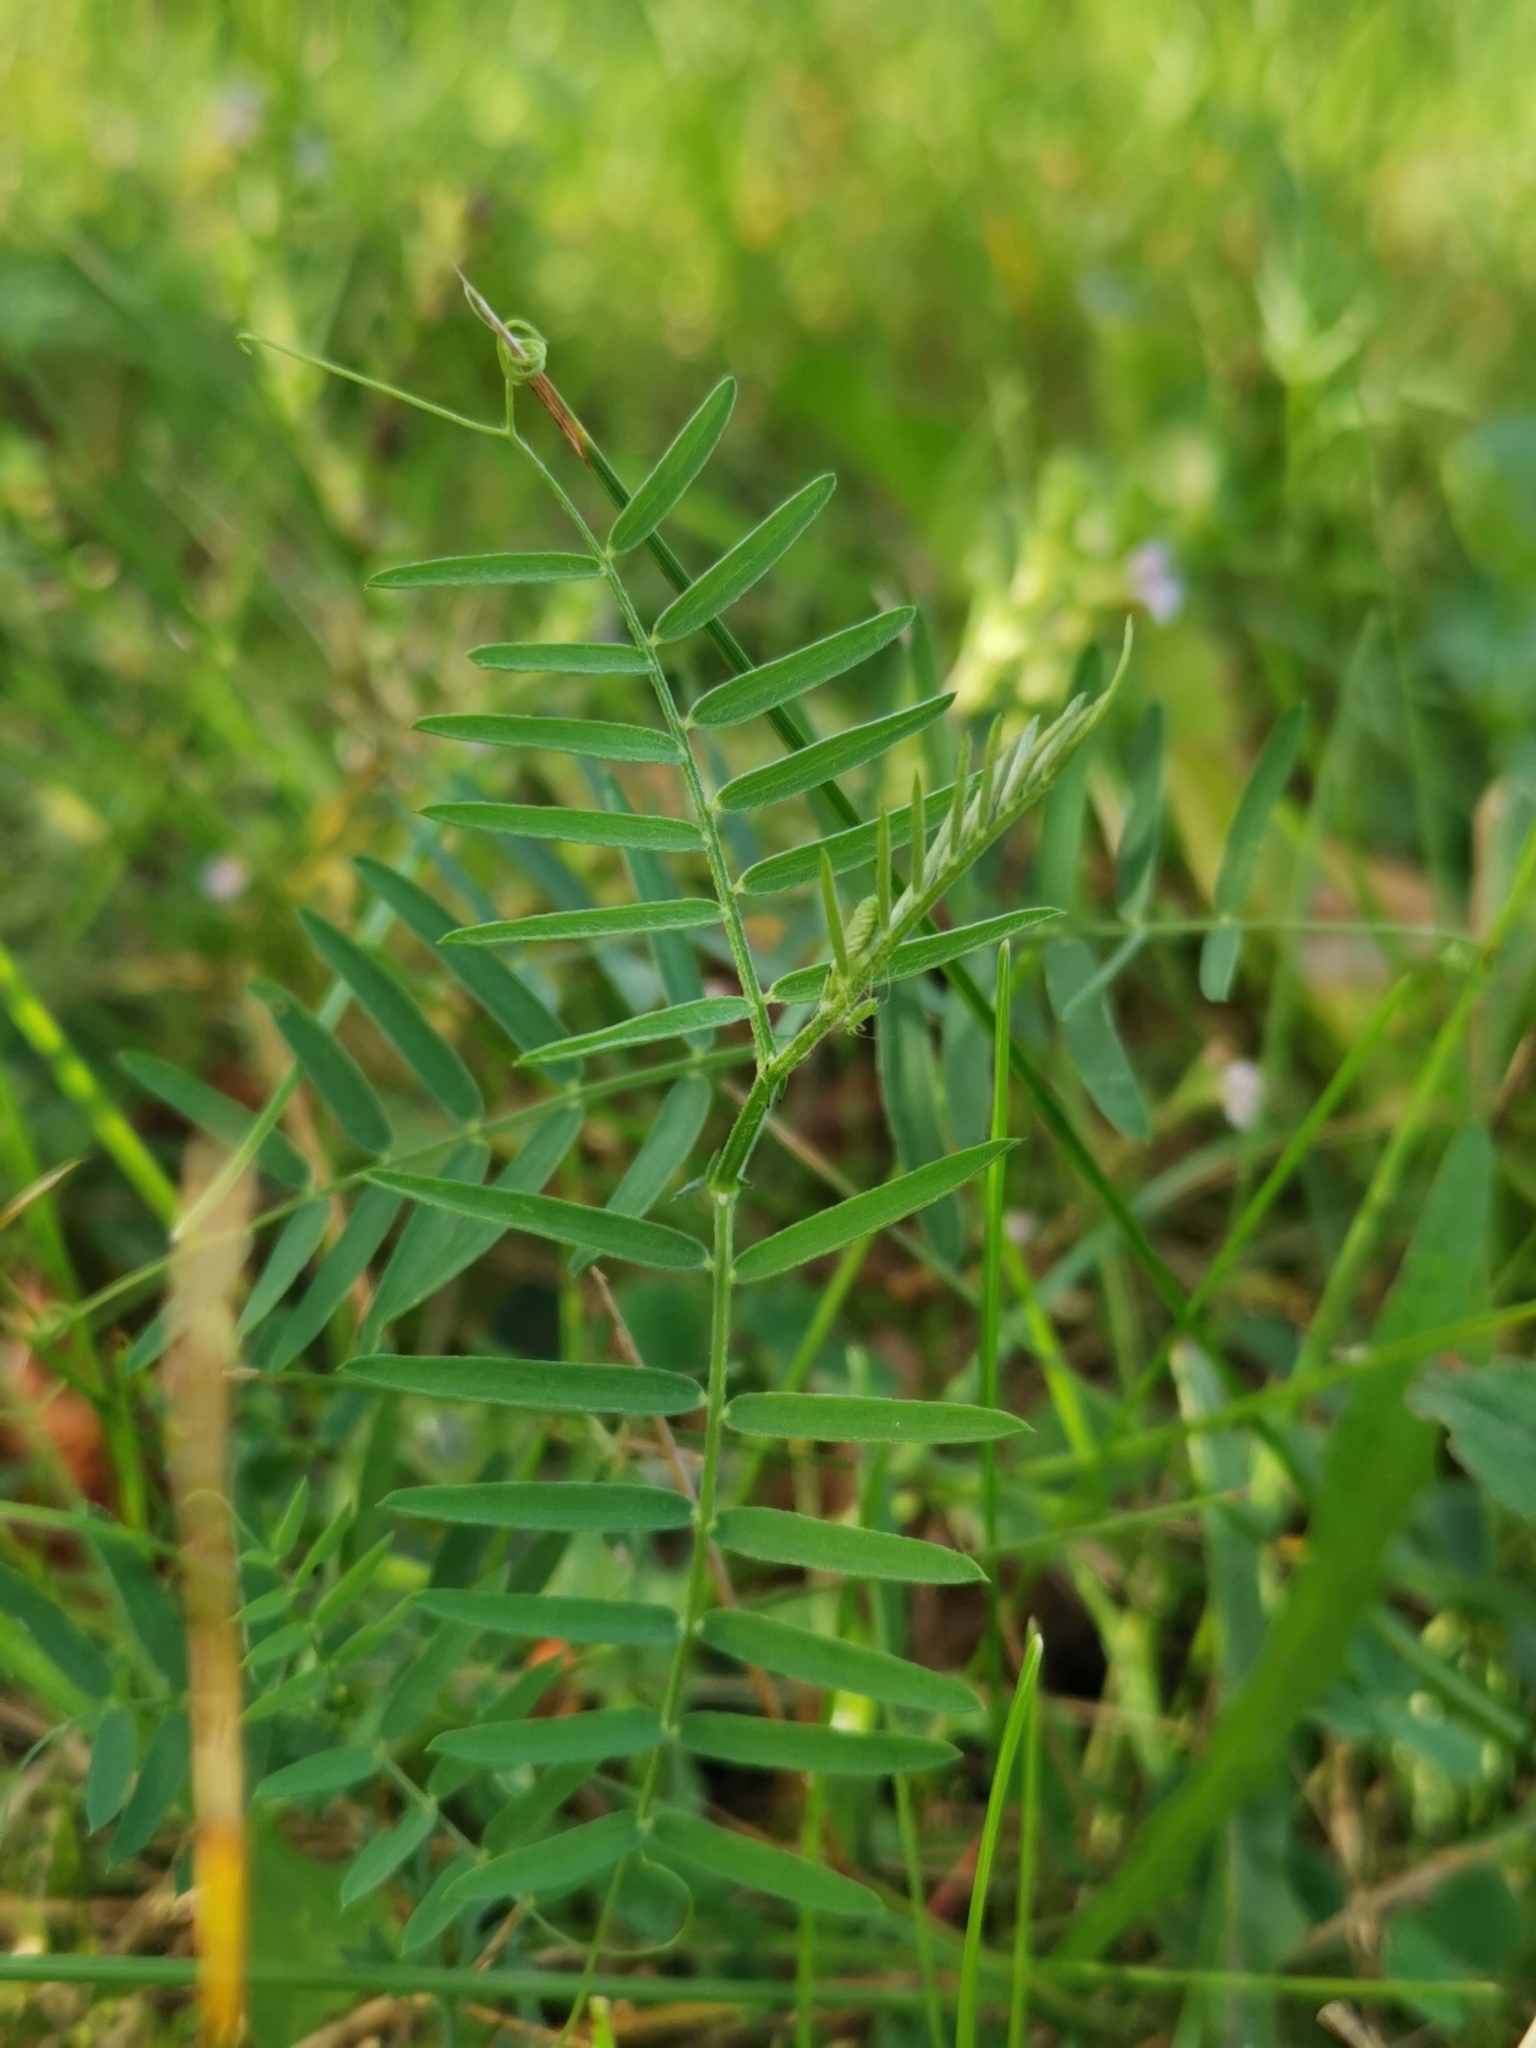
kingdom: Plantae
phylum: Tracheophyta
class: Magnoliopsida
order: Fabales
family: Fabaceae
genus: Vicia
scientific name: Vicia cracca
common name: Bird vetch
